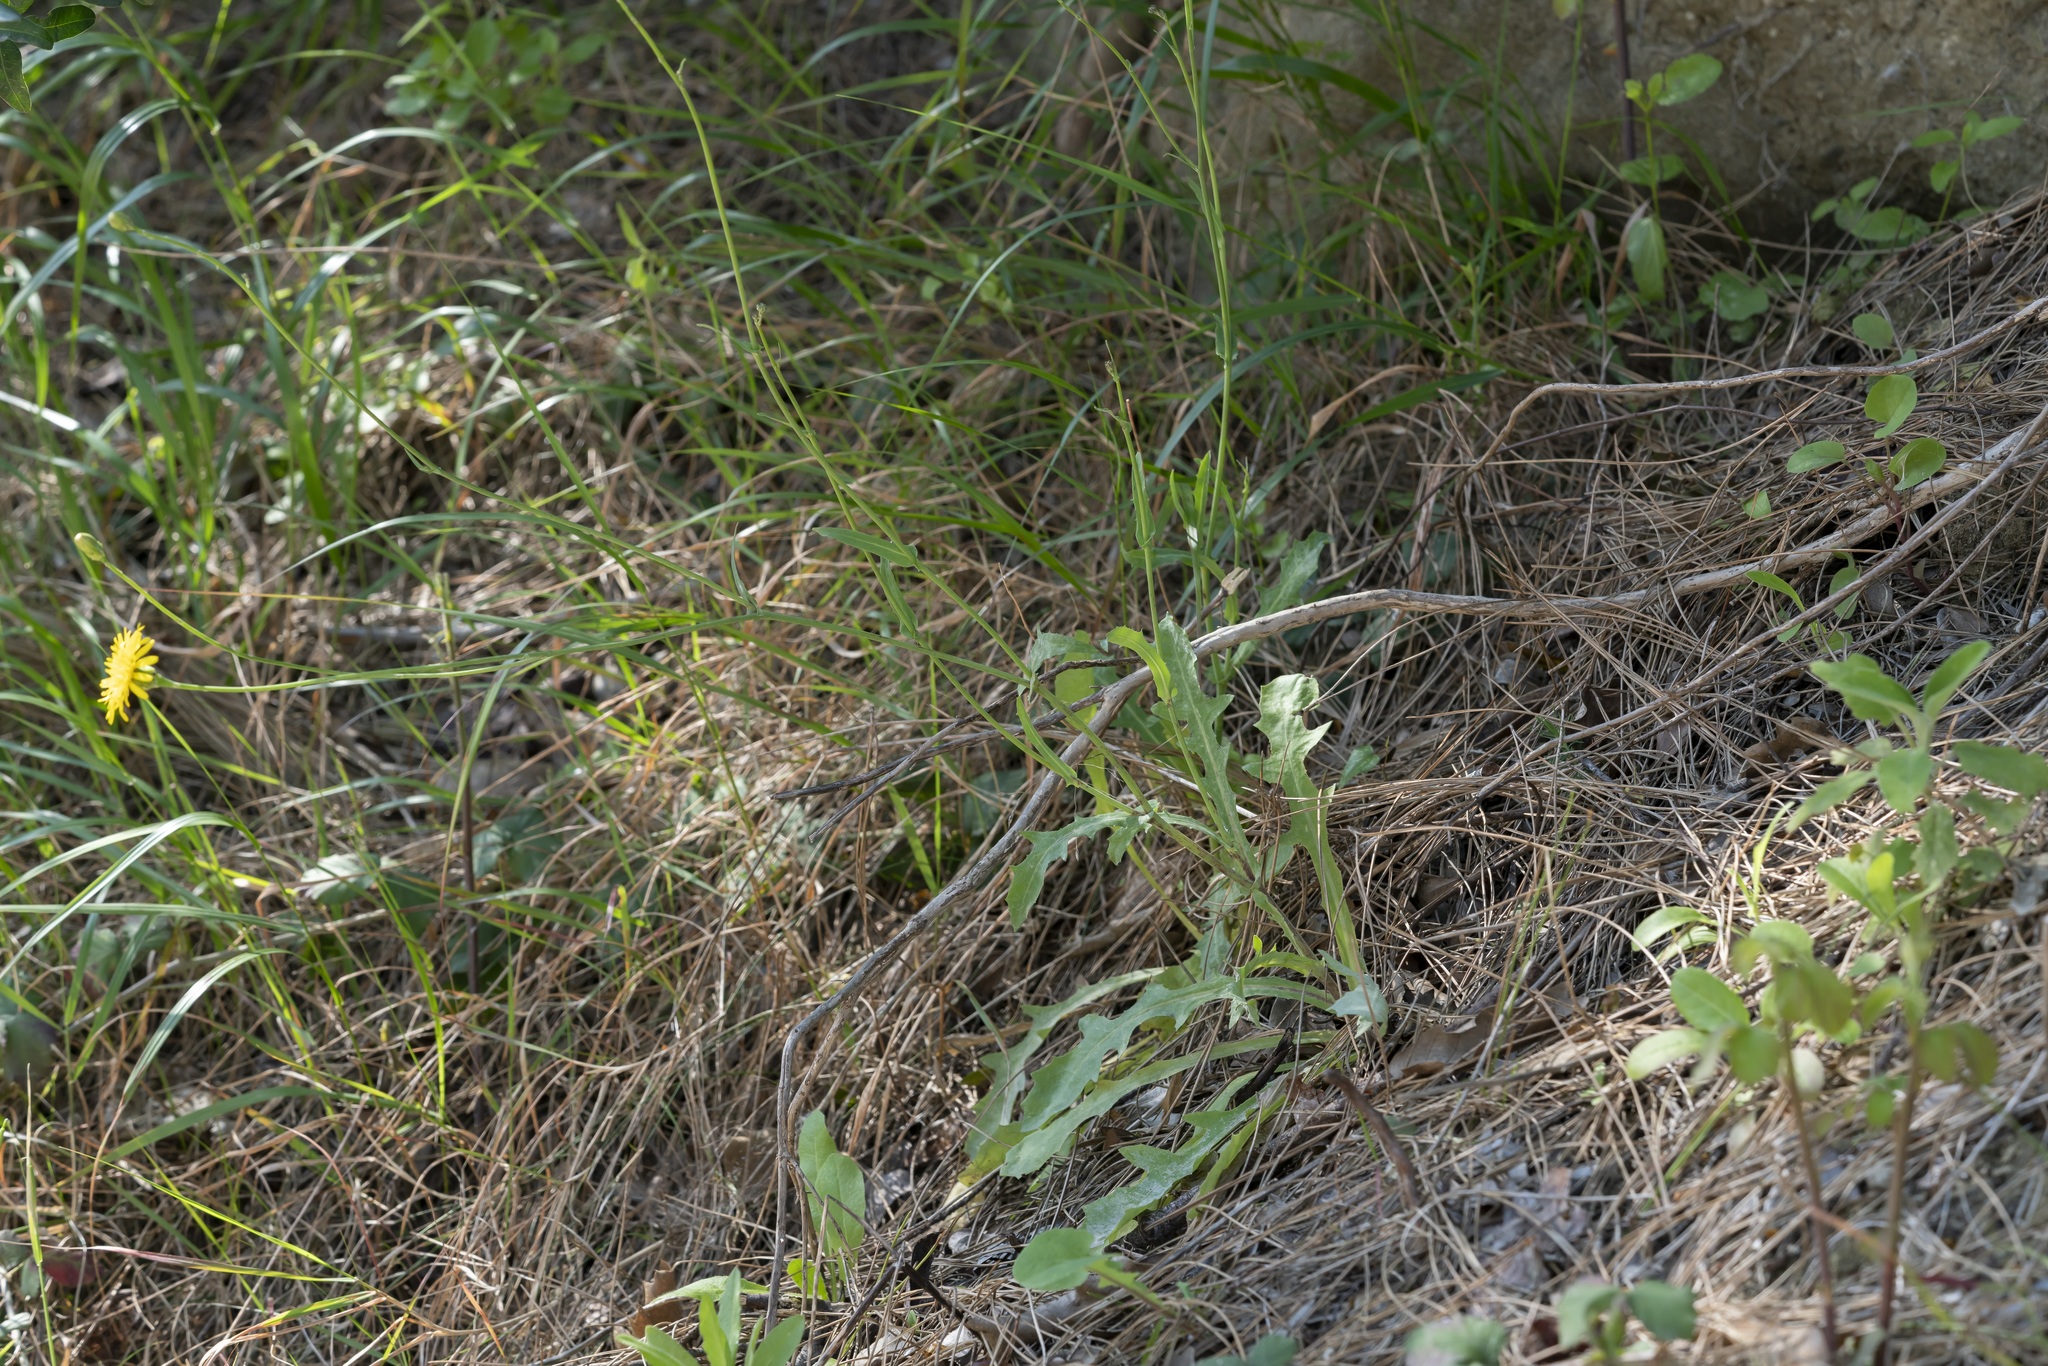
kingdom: Plantae
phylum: Tracheophyta
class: Magnoliopsida
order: Asterales
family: Asteraceae
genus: Reichardia
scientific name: Reichardia picroides
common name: Common brighteyes
